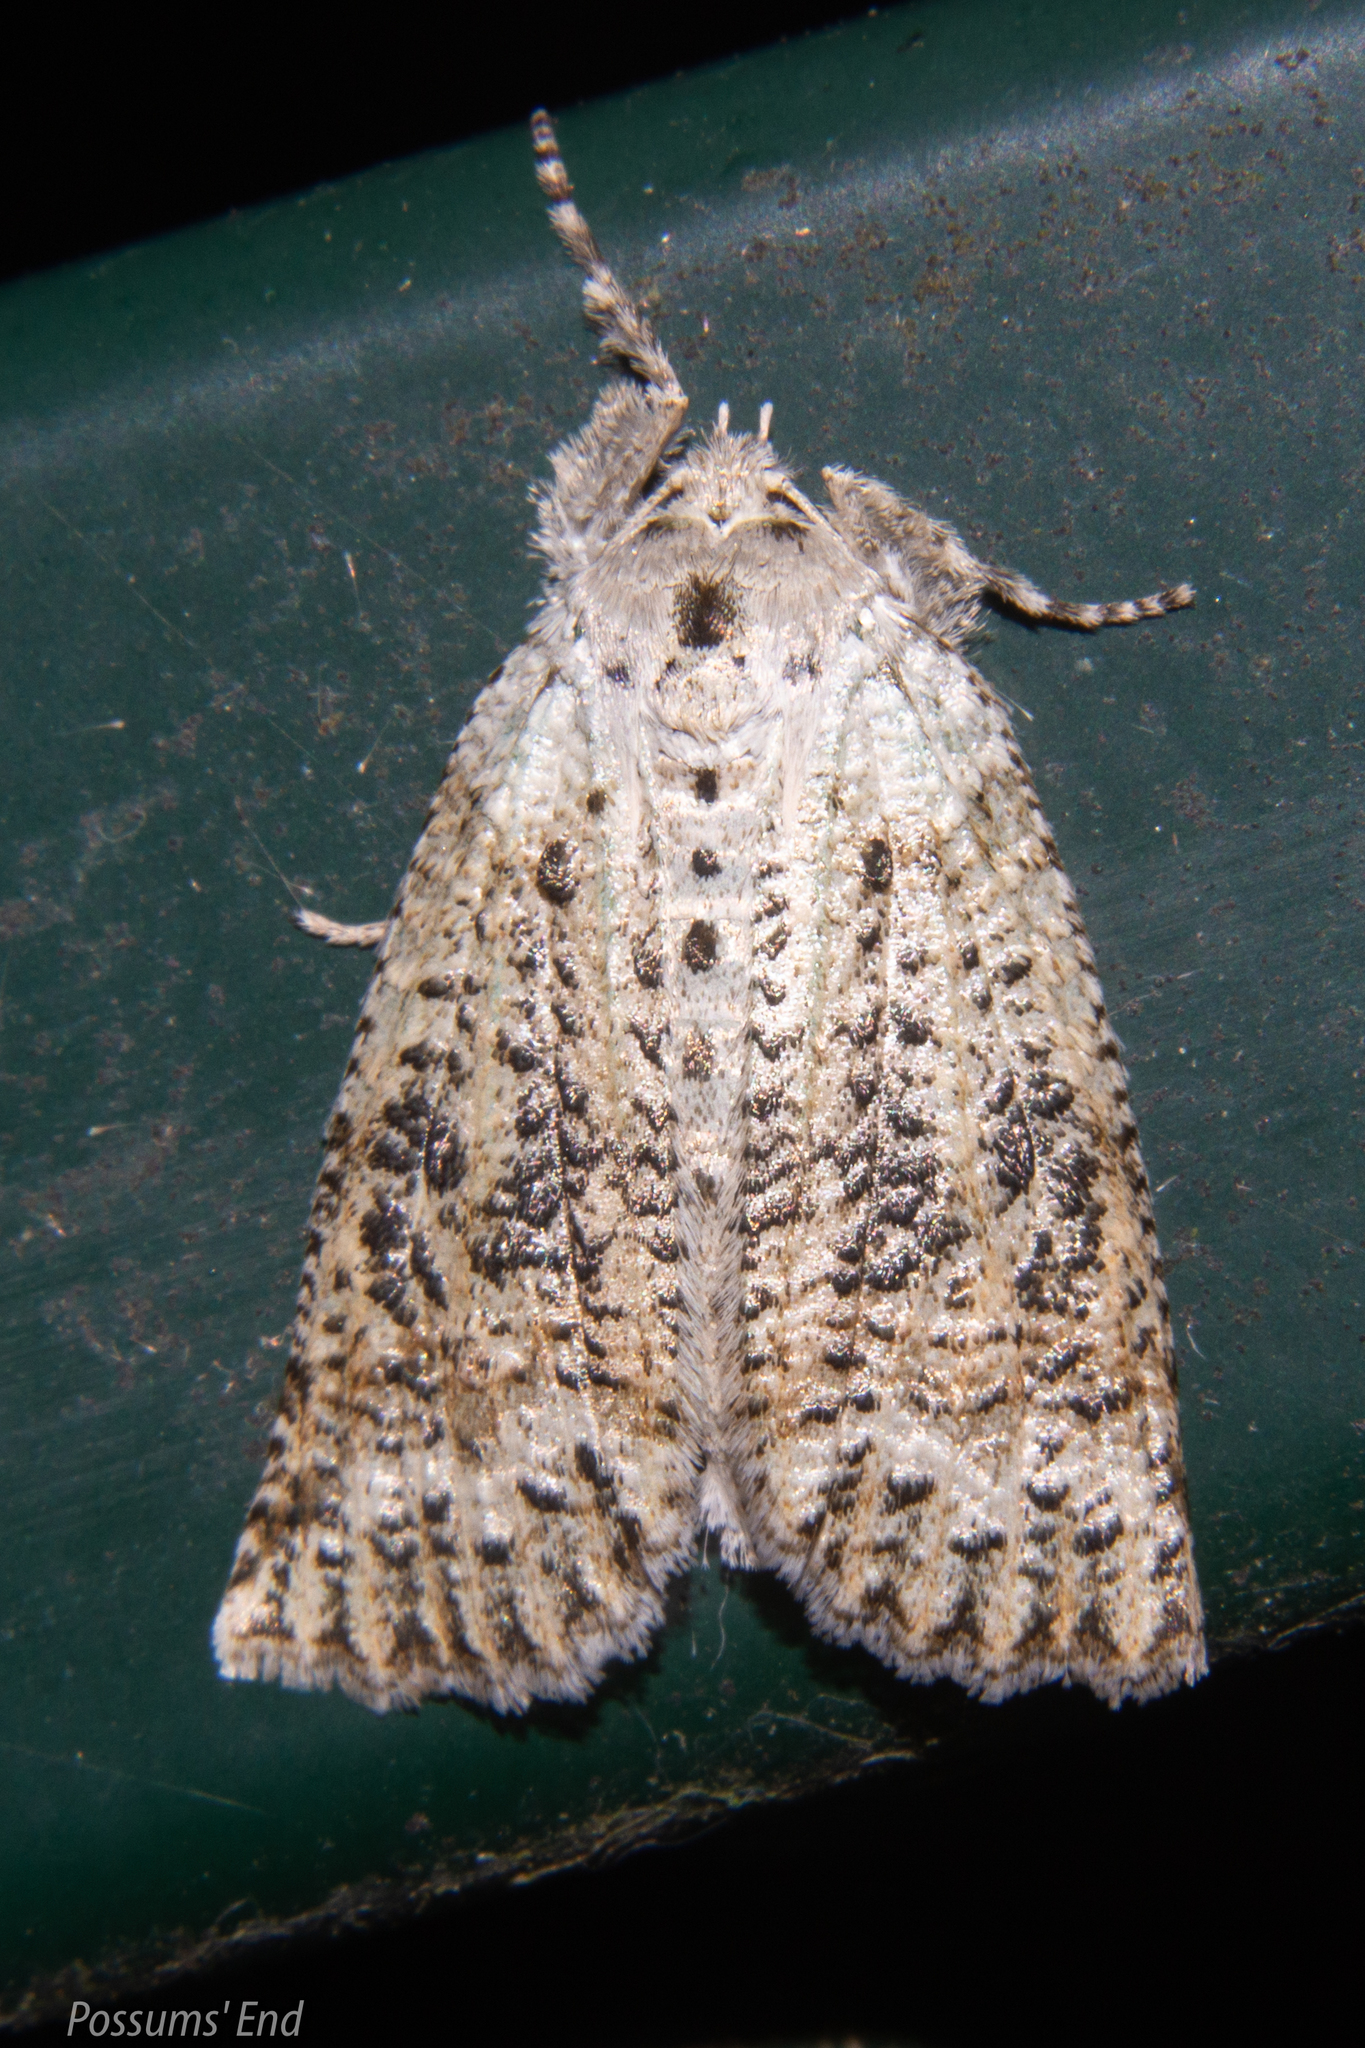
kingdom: Animalia
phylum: Arthropoda
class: Insecta
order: Lepidoptera
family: Geometridae
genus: Declana
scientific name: Declana floccosa
